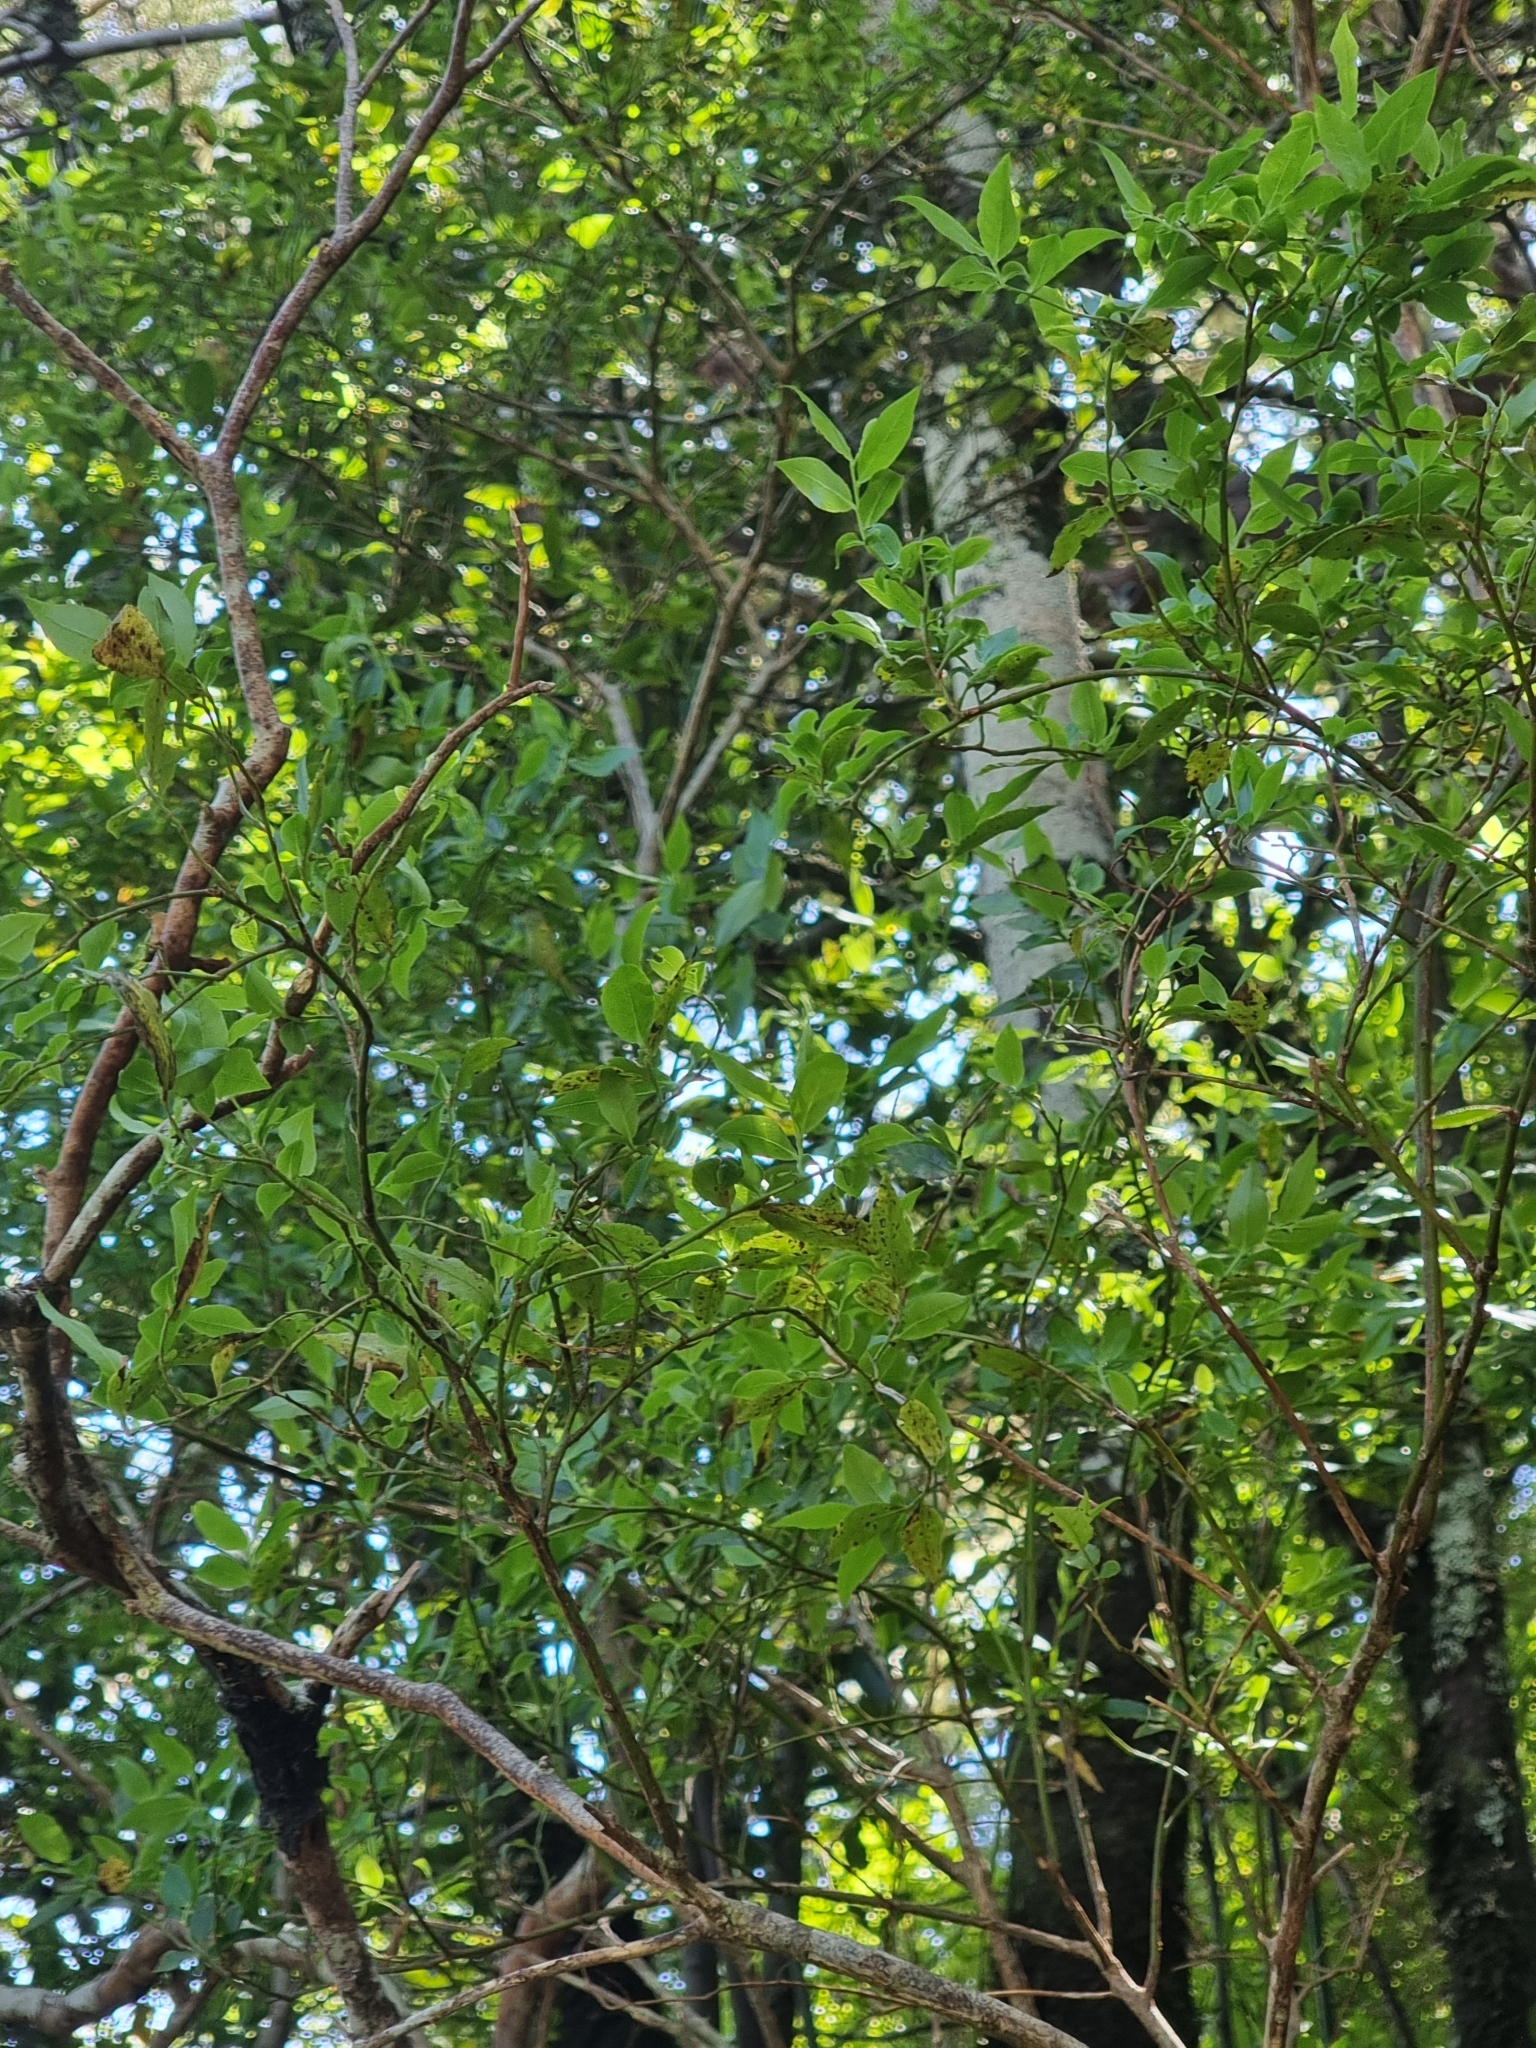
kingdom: Plantae
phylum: Tracheophyta
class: Magnoliopsida
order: Ericales
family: Ericaceae
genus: Vaccinium
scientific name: Vaccinium padifolium
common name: Madeiran blueberry
